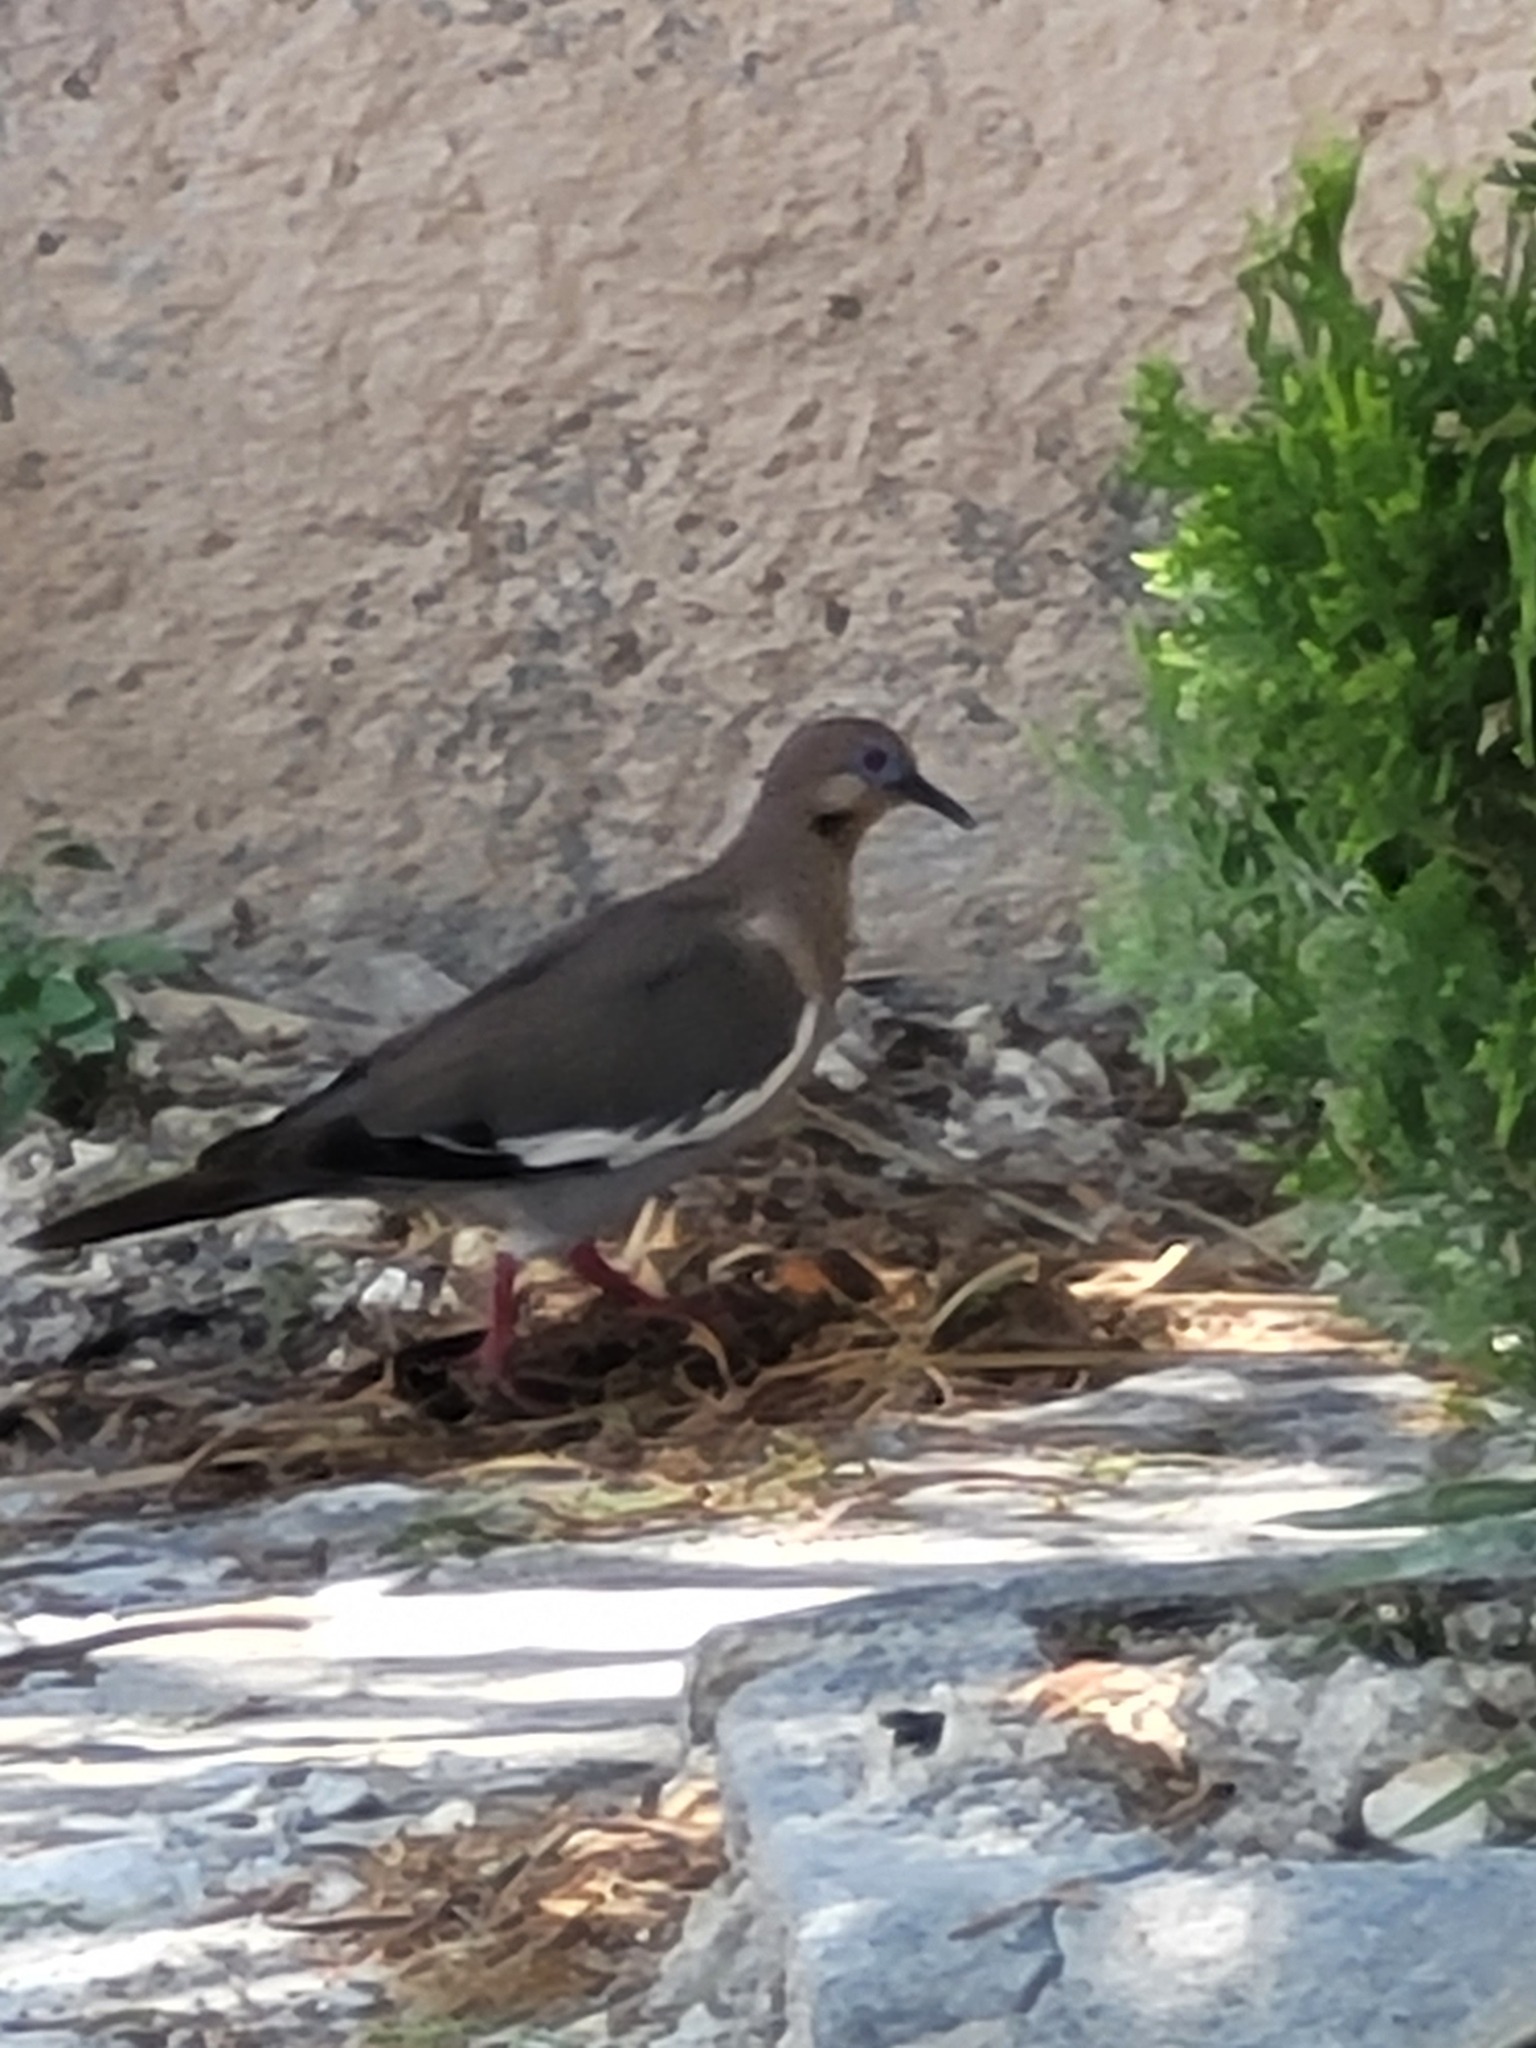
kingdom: Animalia
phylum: Chordata
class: Aves
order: Columbiformes
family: Columbidae
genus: Zenaida
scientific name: Zenaida asiatica
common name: White-winged dove
